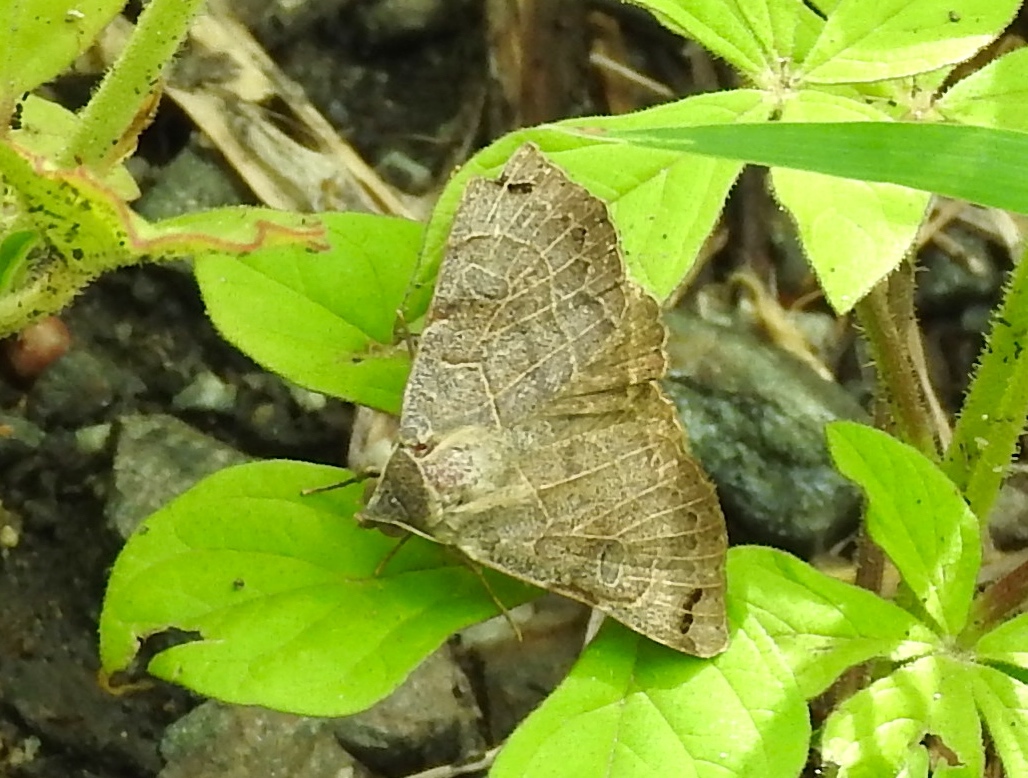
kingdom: Animalia
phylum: Arthropoda
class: Insecta
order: Lepidoptera
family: Erebidae
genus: Isogona
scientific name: Isogona scindens
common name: Owlet moth
